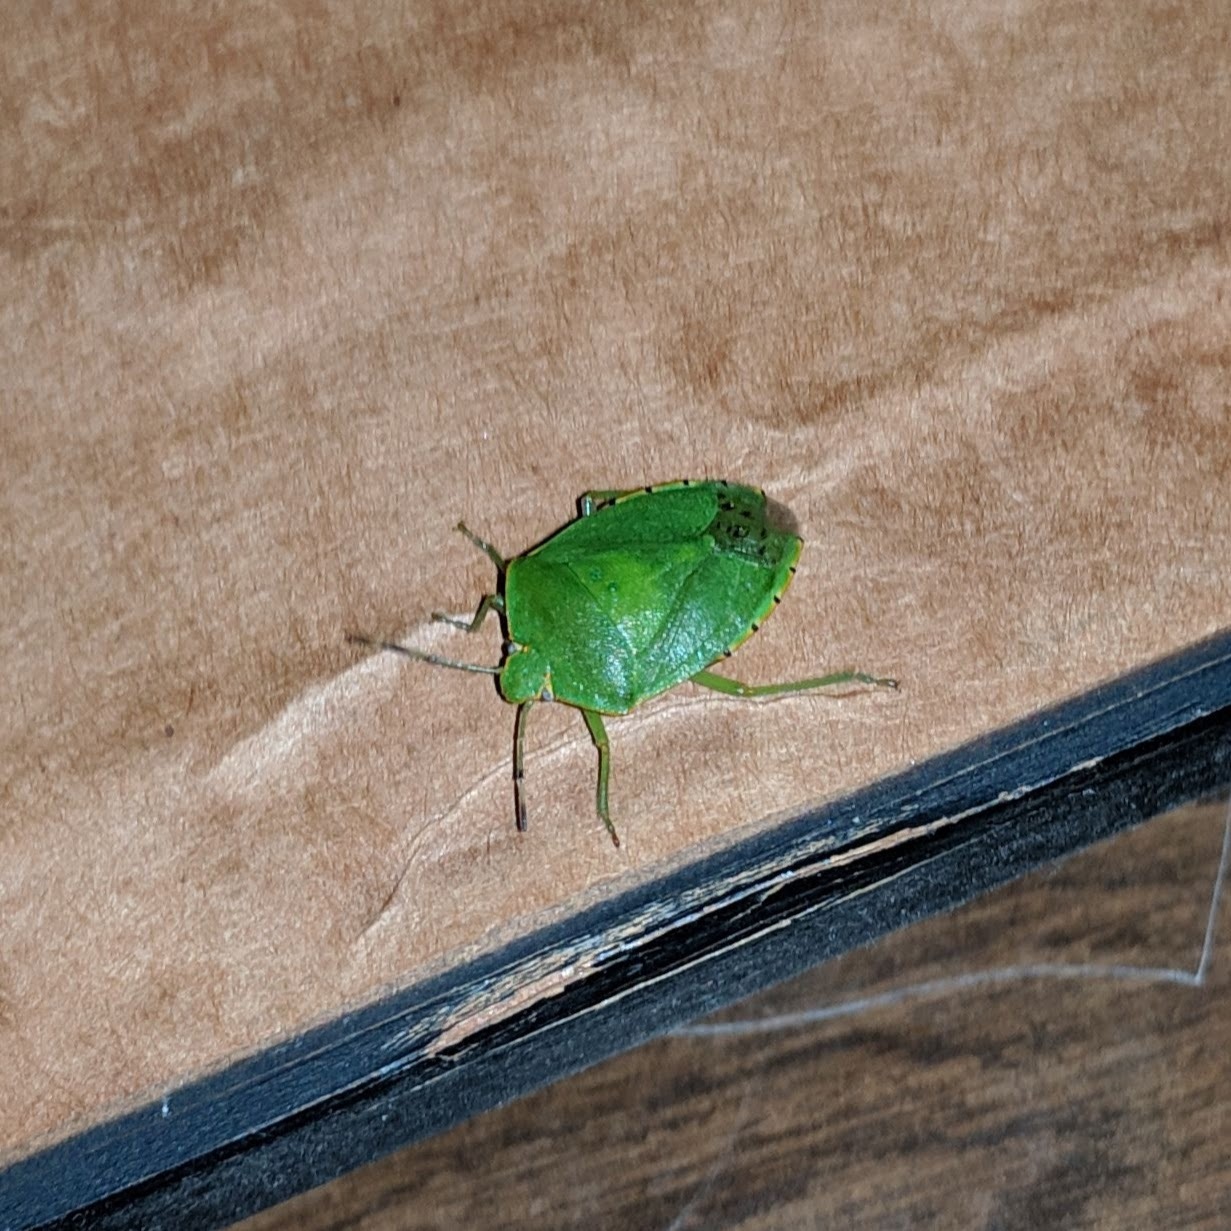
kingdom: Animalia
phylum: Arthropoda
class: Insecta
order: Hemiptera
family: Pentatomidae
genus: Chinavia
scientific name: Chinavia hilaris
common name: Green stink bug
